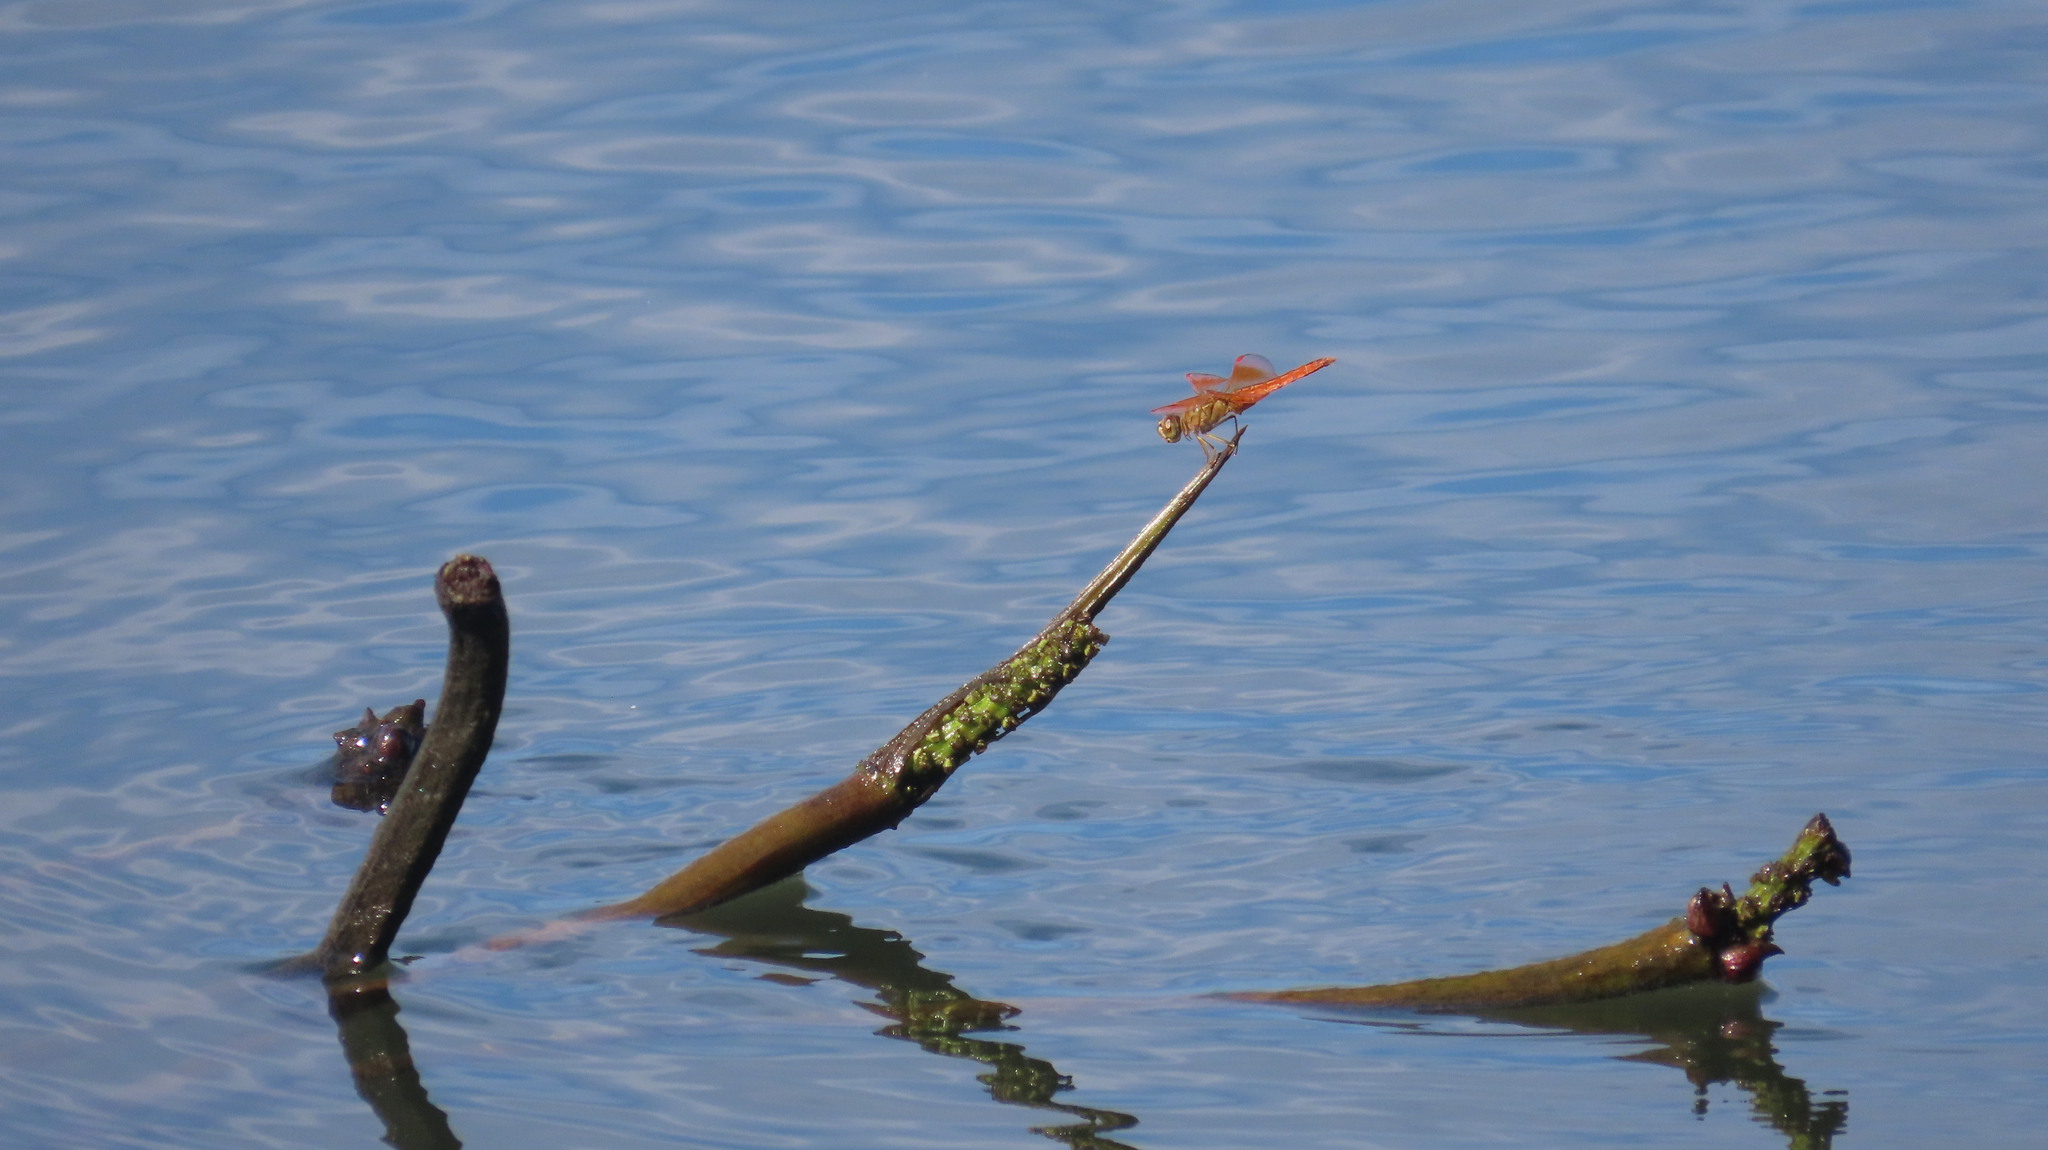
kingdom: Animalia
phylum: Arthropoda
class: Insecta
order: Odonata
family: Libellulidae
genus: Brachythemis
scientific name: Brachythemis contaminata
